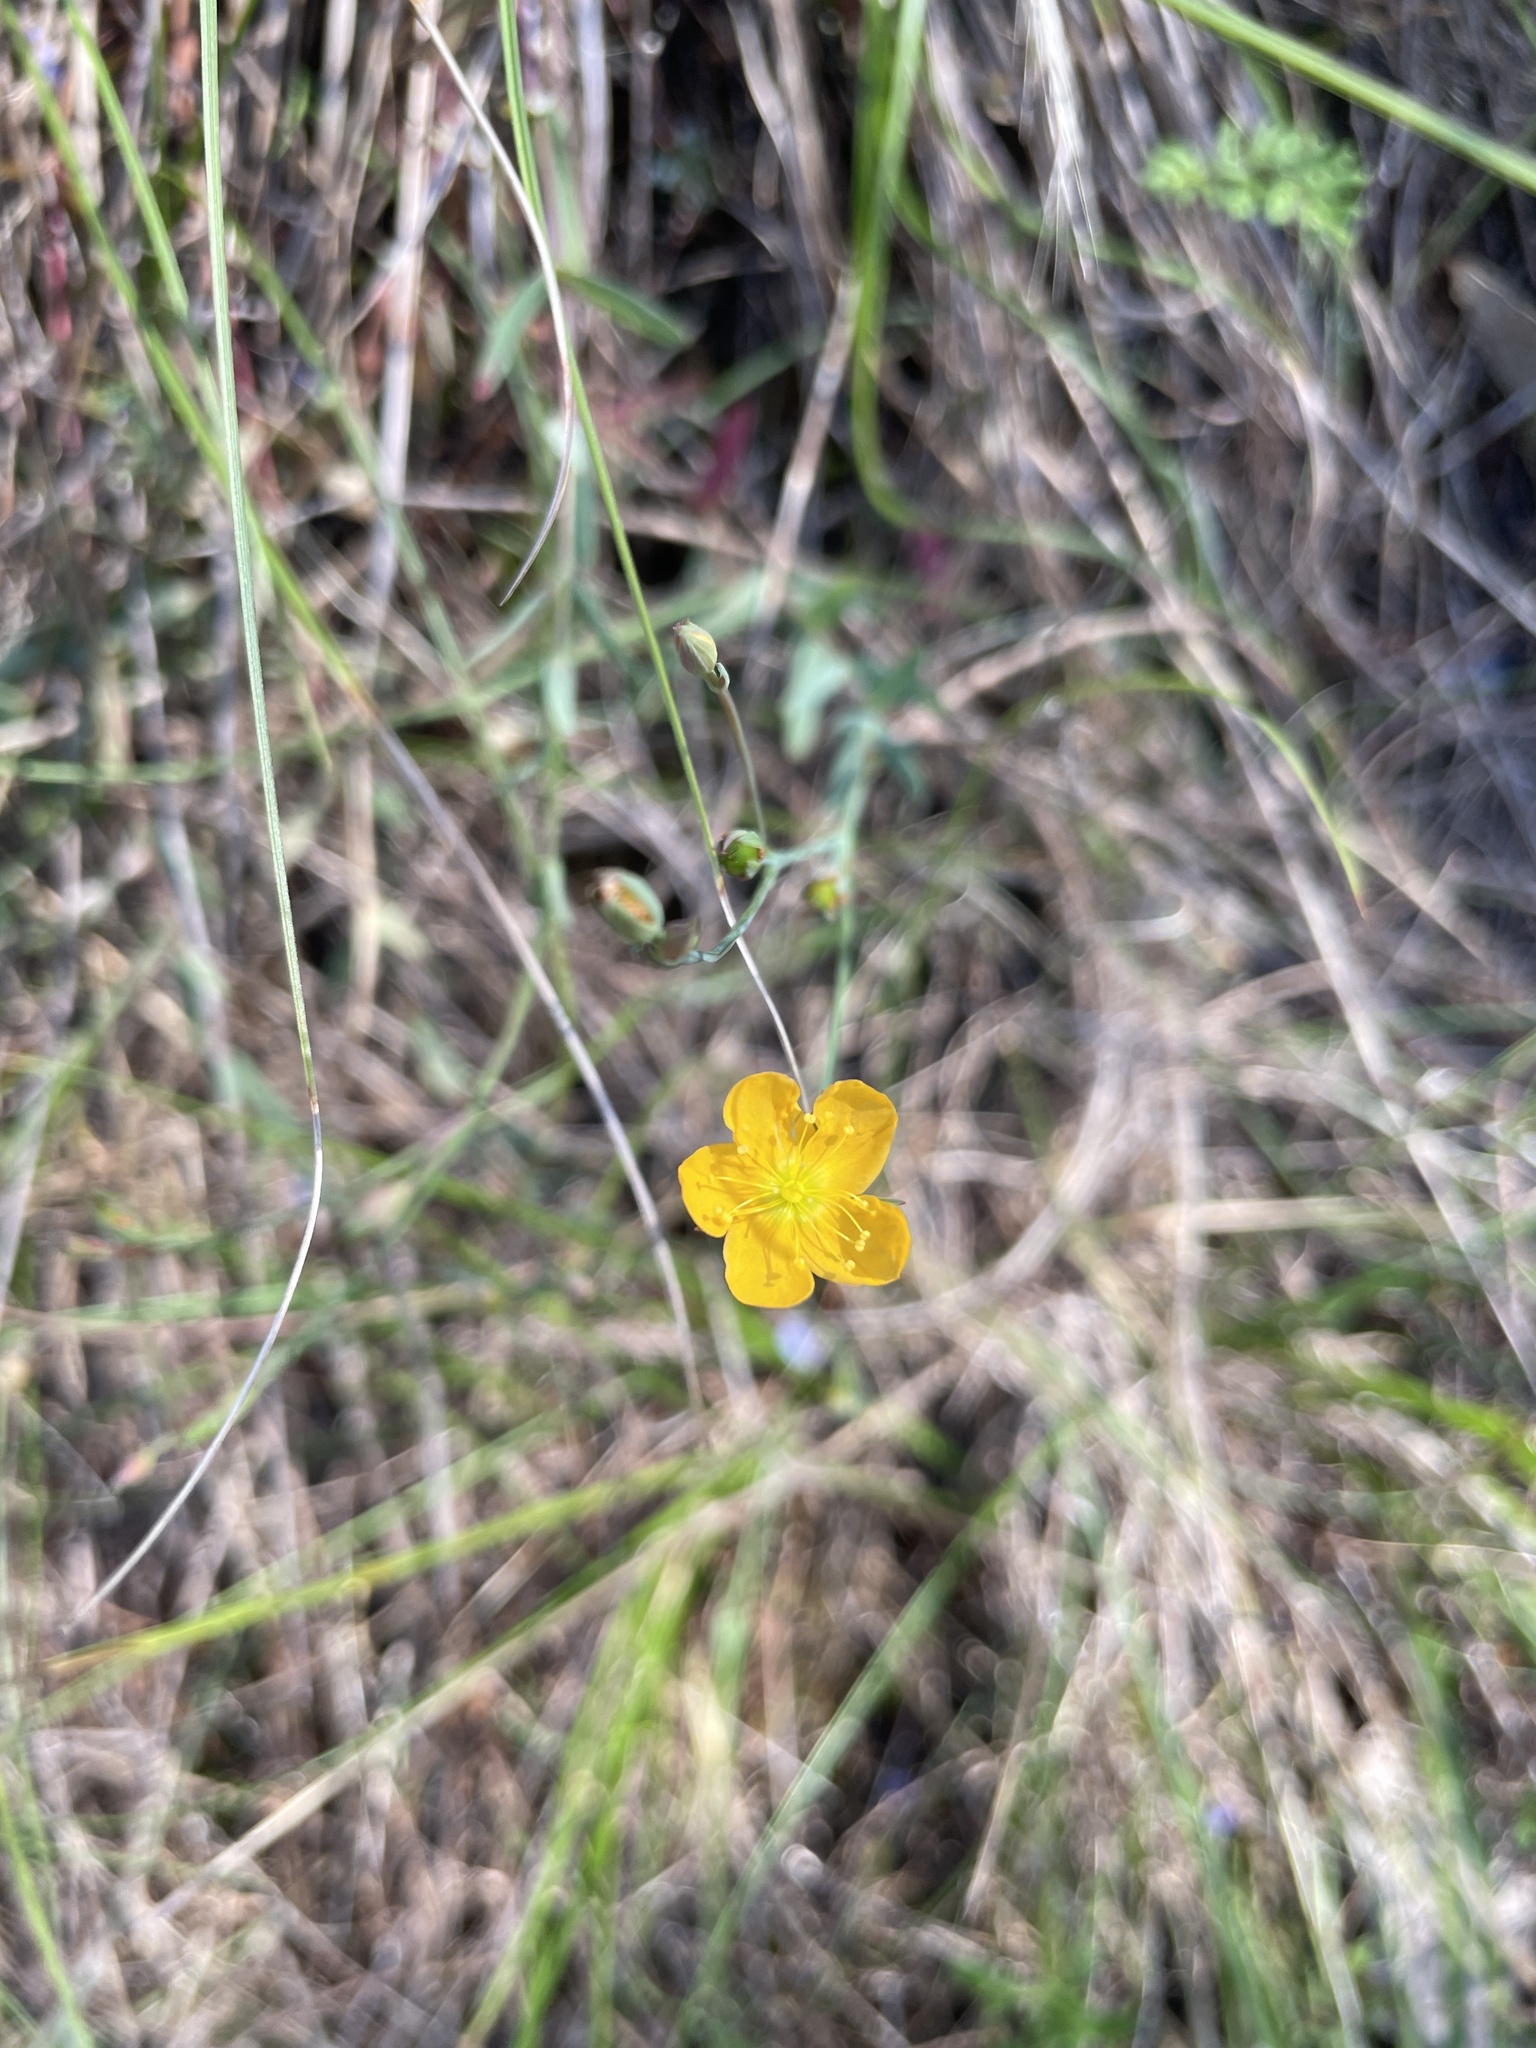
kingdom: Plantae
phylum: Tracheophyta
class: Magnoliopsida
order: Malpighiales
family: Hypericaceae
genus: Hypericum
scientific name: Hypericum gramineum
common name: Grassy st. johnswort
